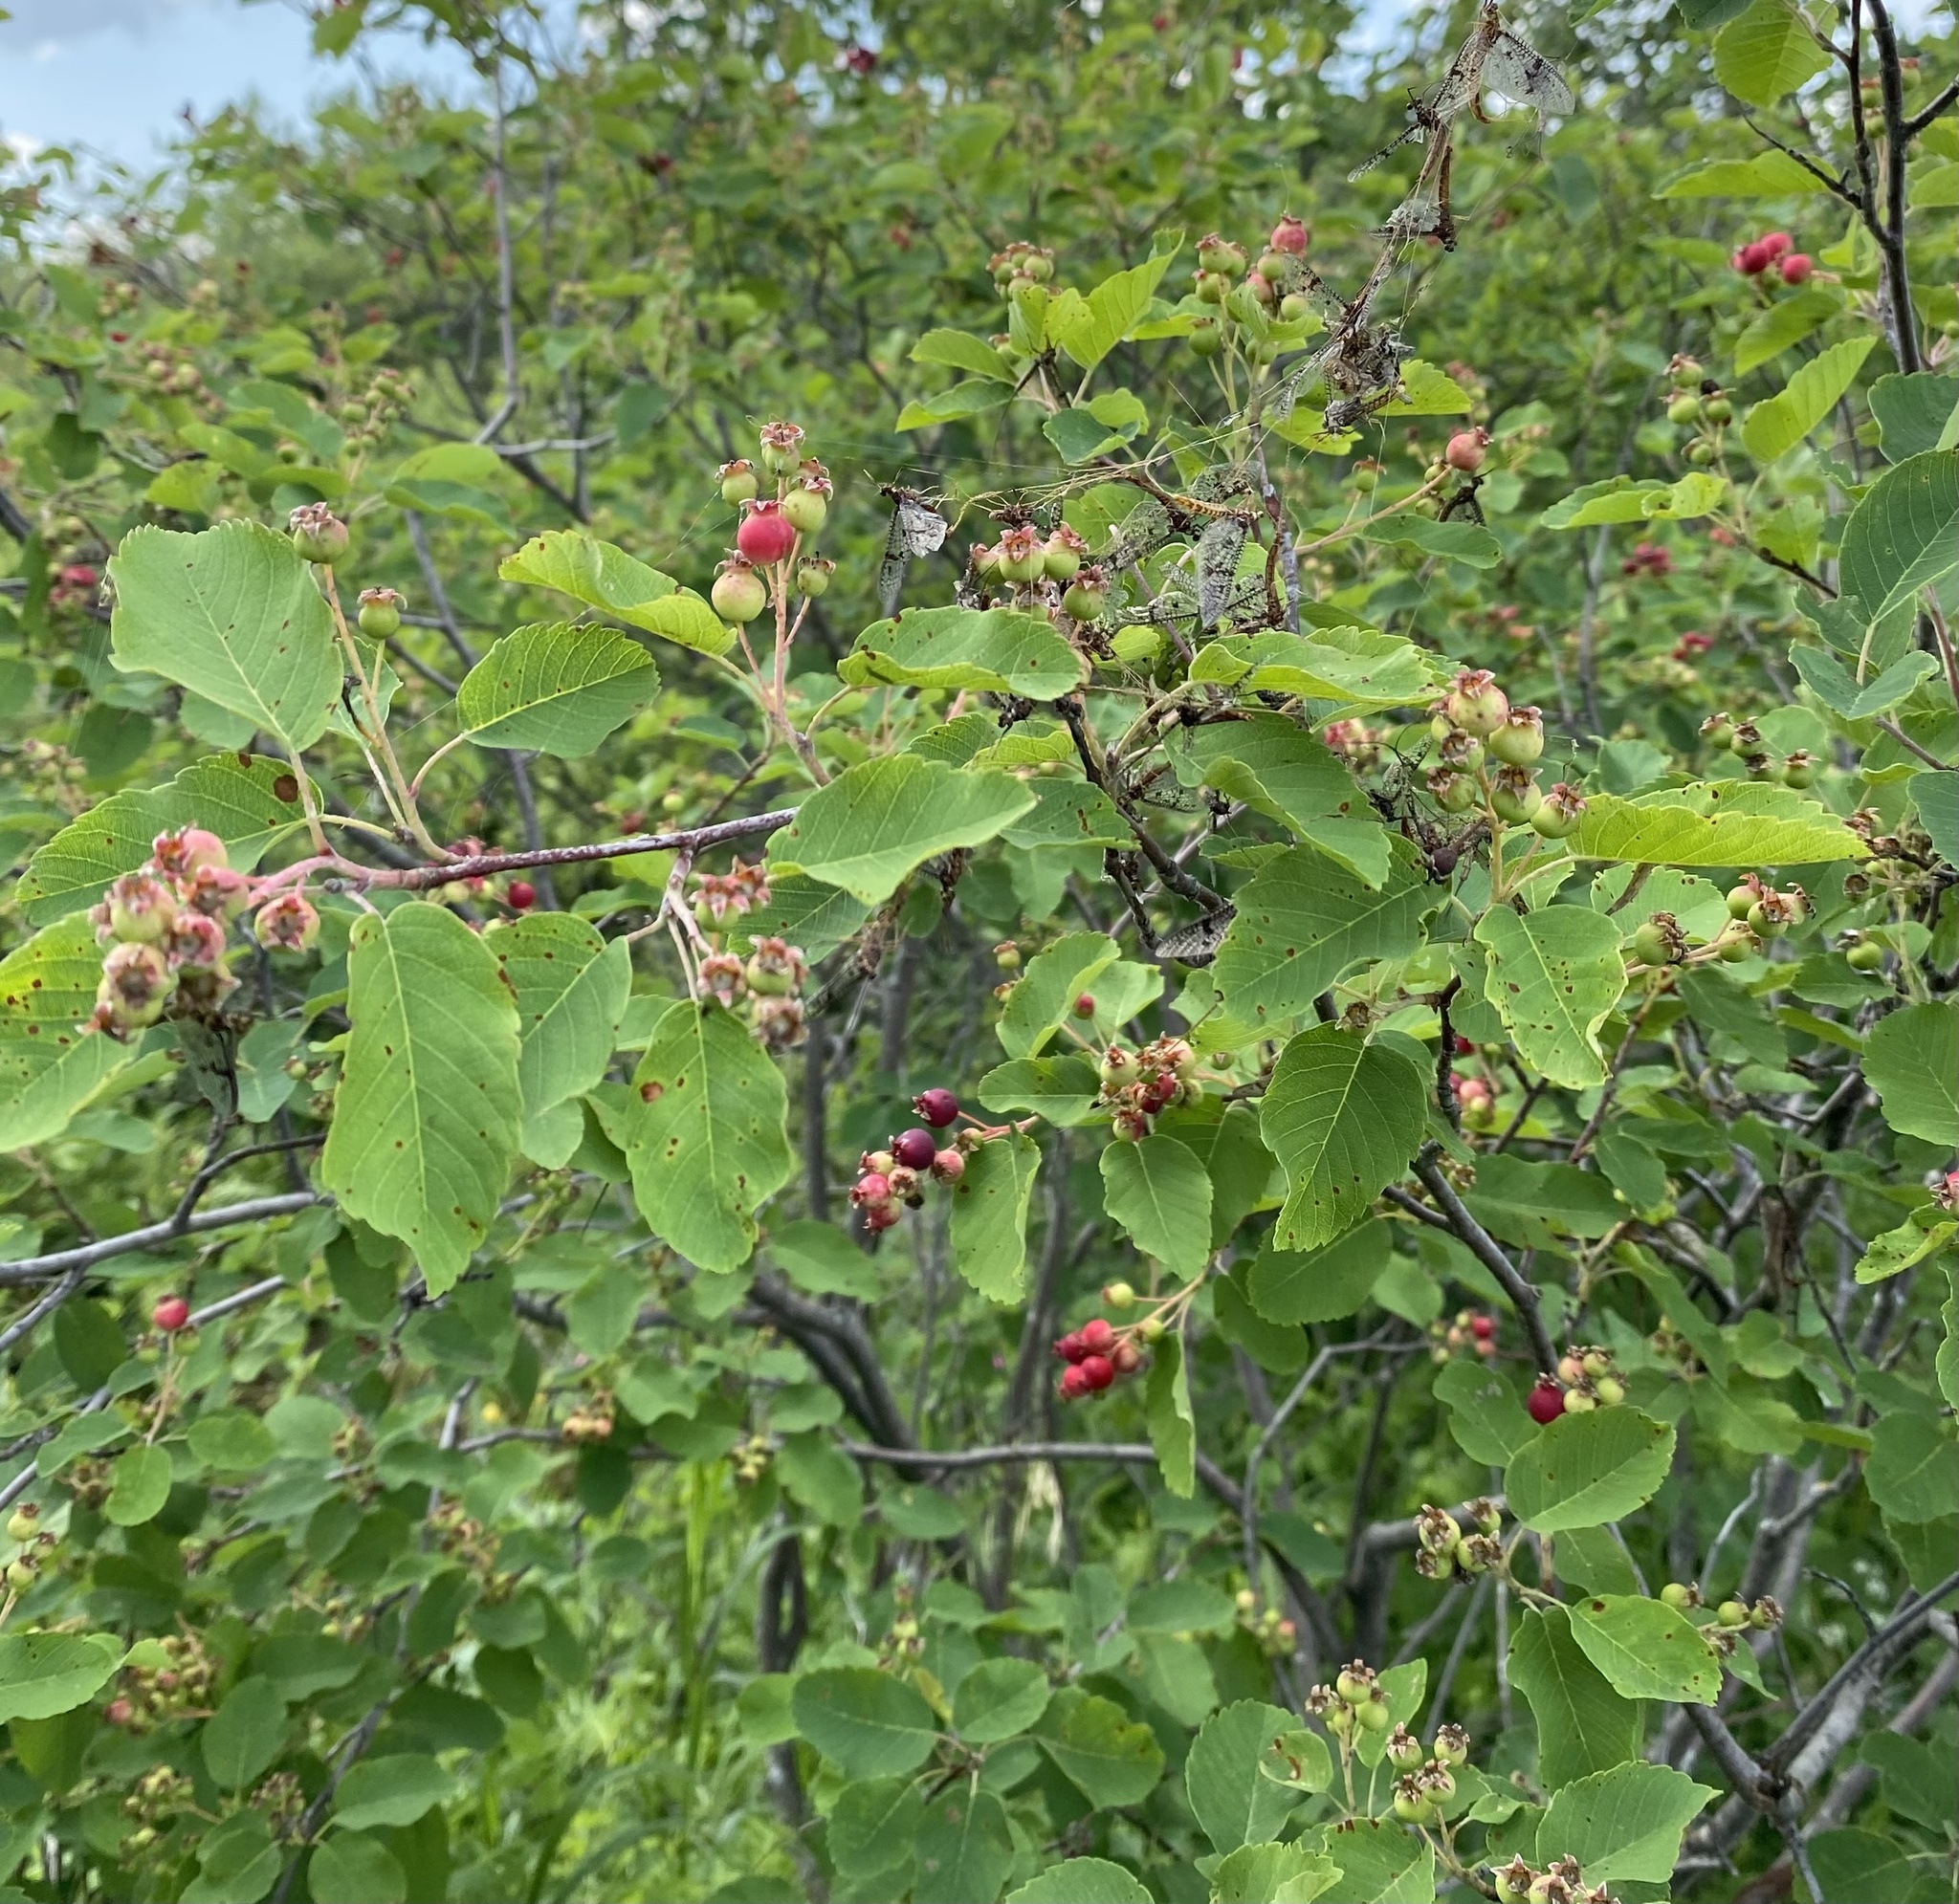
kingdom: Plantae
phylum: Tracheophyta
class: Magnoliopsida
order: Rosales
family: Rosaceae
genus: Amelanchier
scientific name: Amelanchier alnifolia
